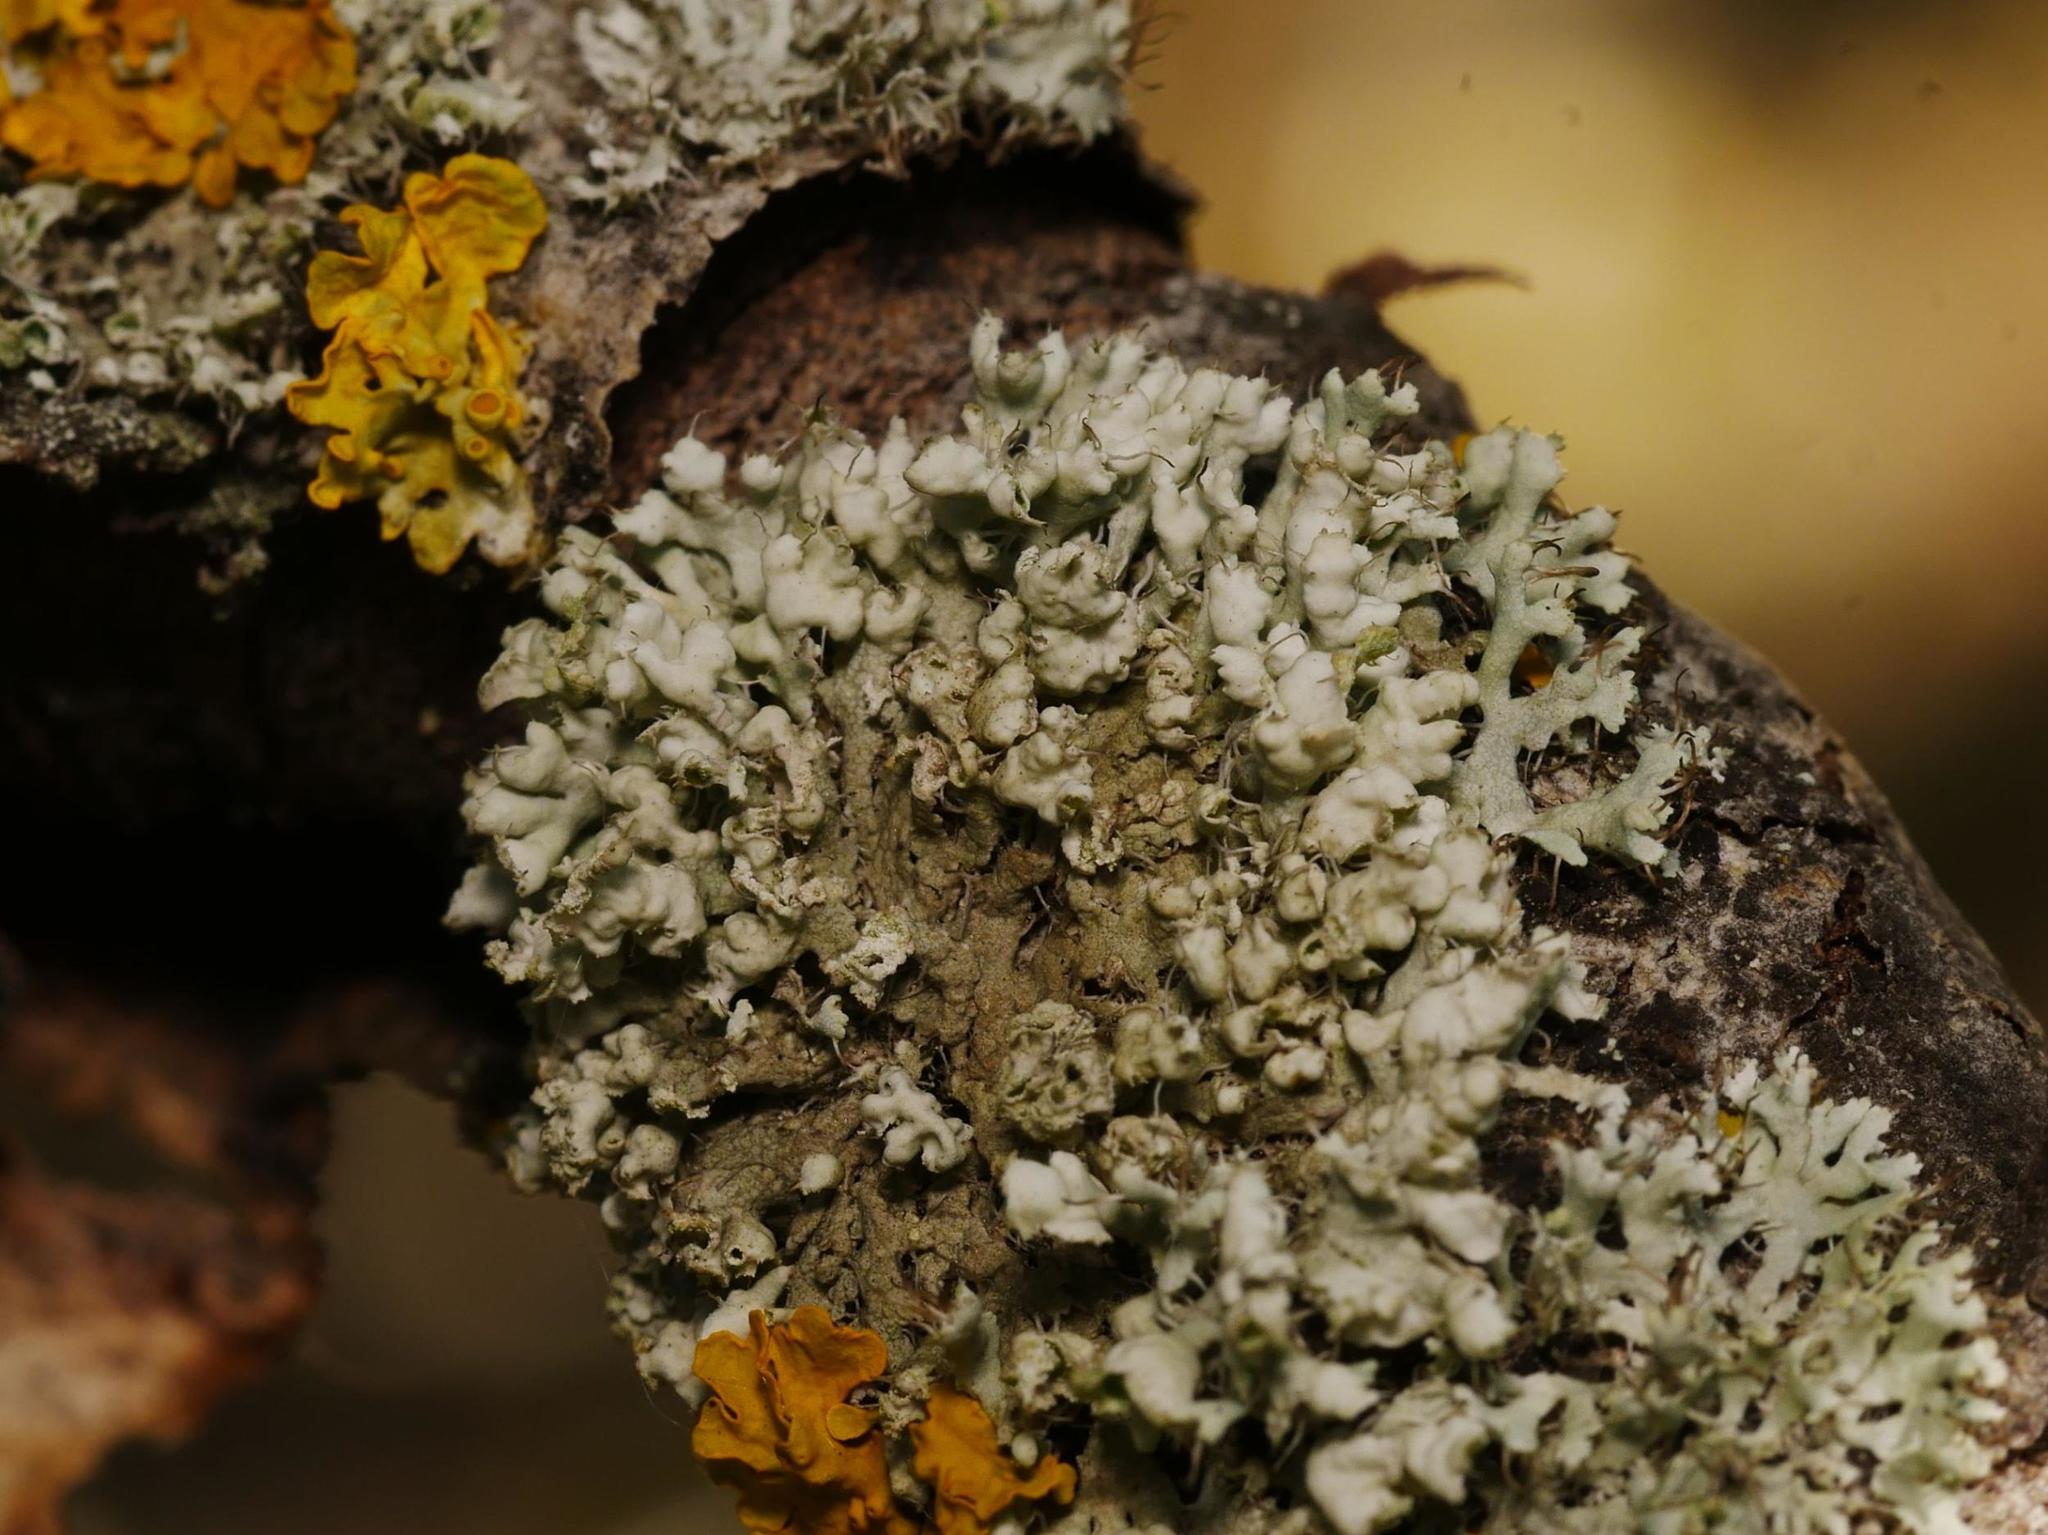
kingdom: Fungi
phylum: Ascomycota
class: Lecanoromycetes
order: Caliciales
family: Physciaceae
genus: Physcia
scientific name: Physcia adscendens
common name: Hooded rosette lichen
